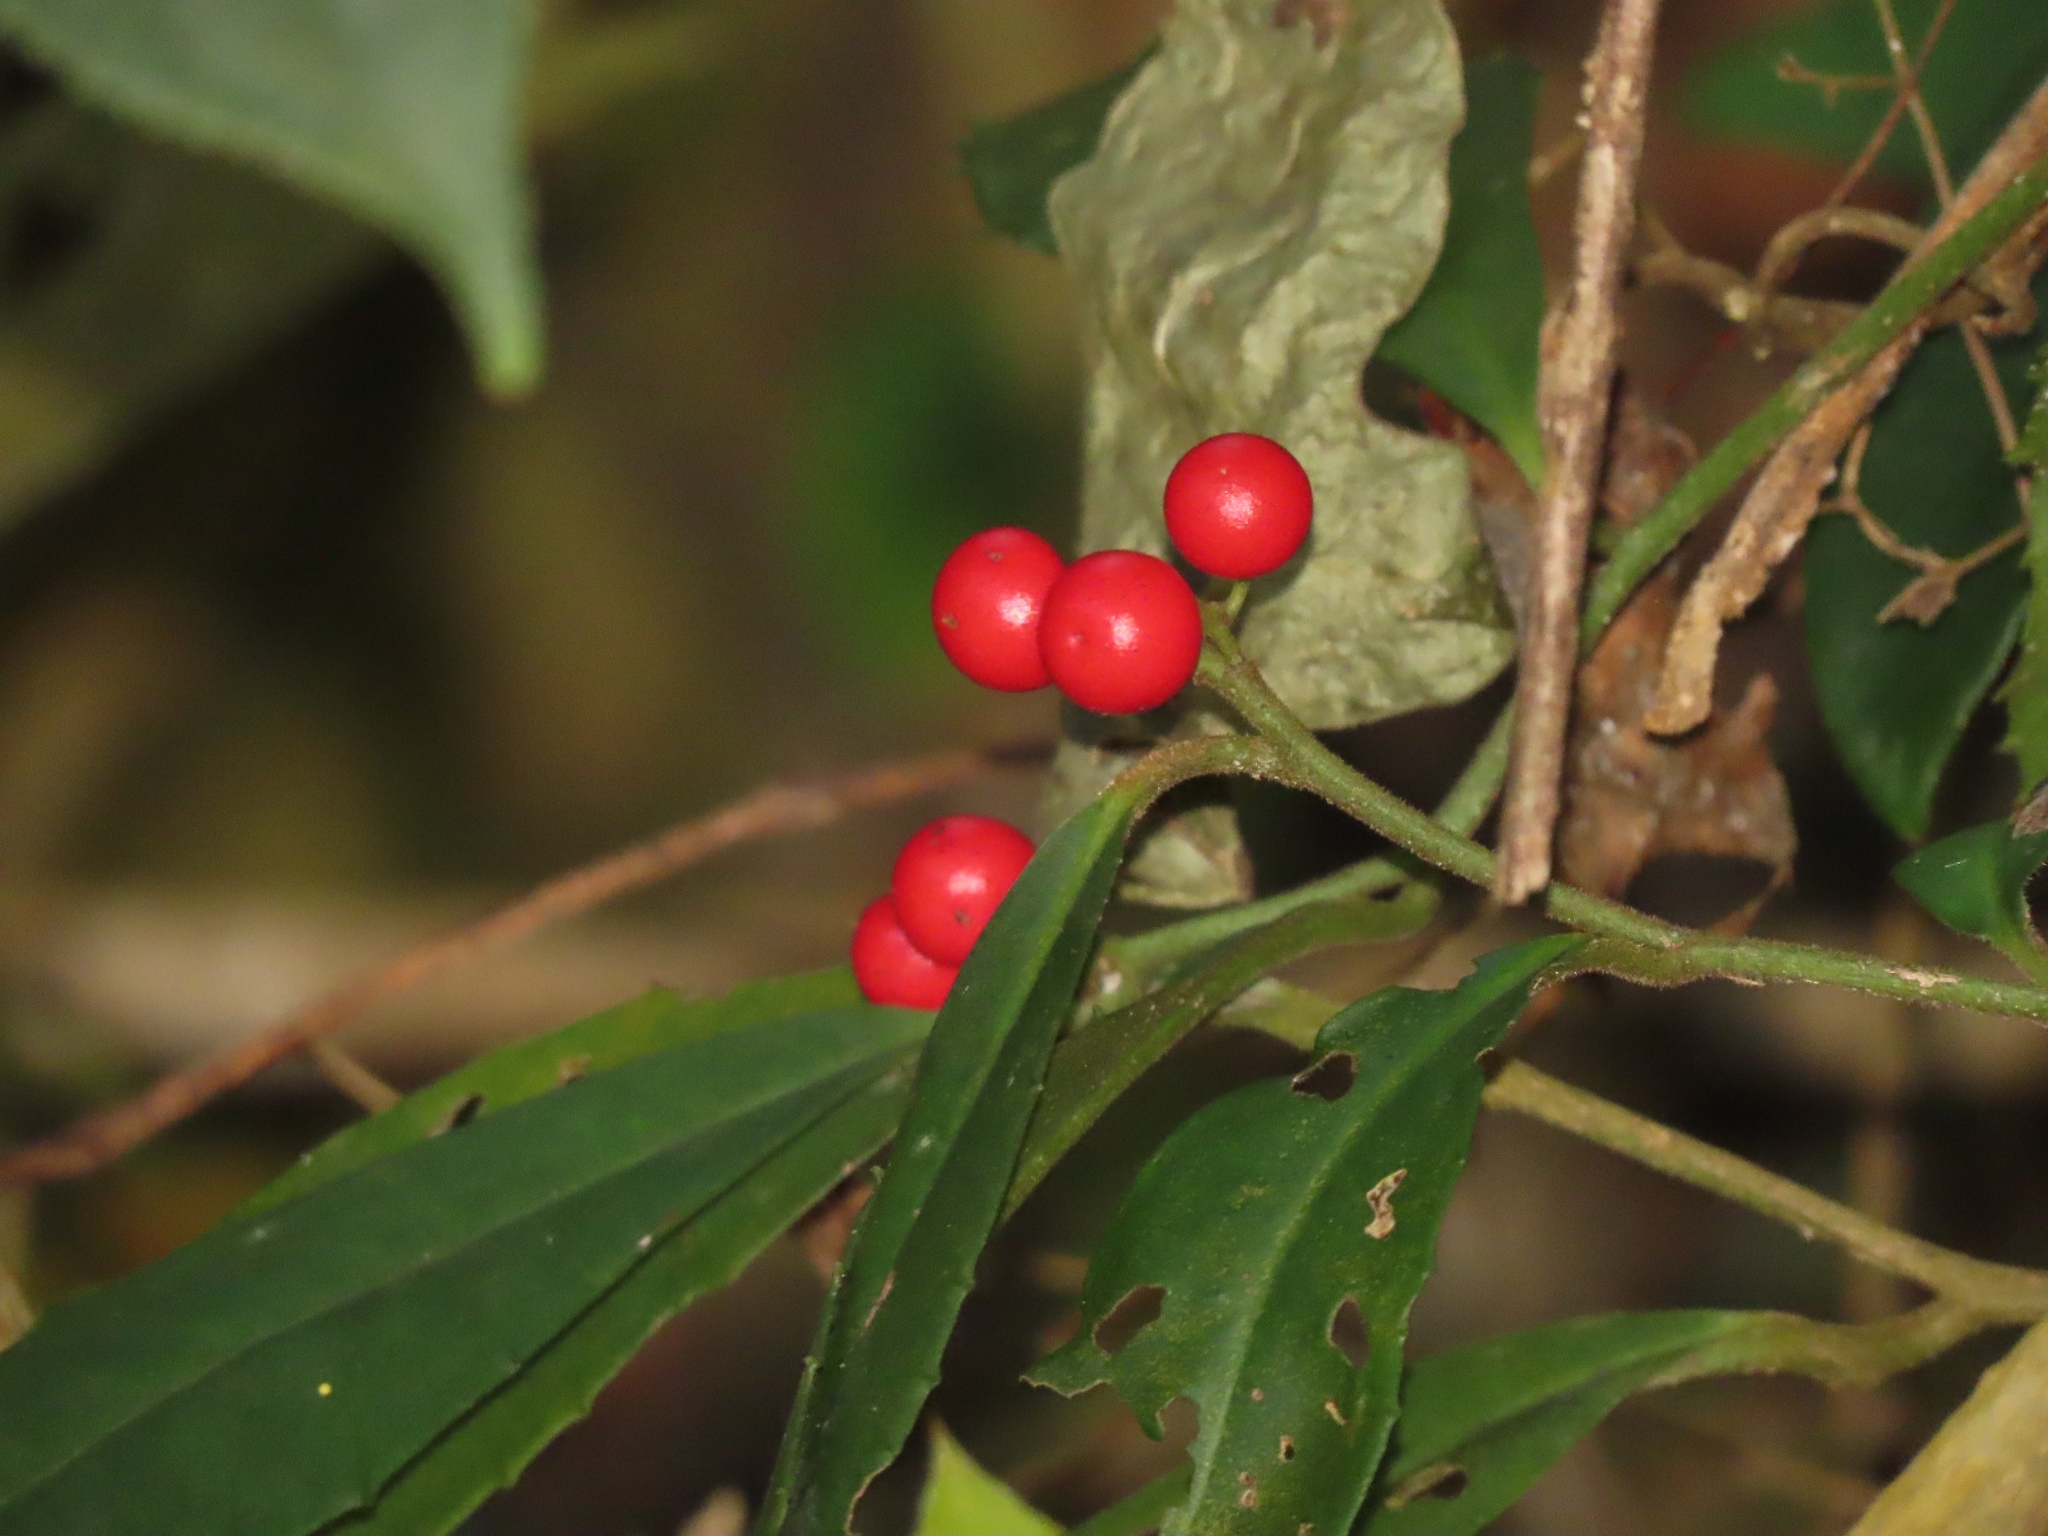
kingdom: Plantae
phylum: Tracheophyta
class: Magnoliopsida
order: Ericales
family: Primulaceae
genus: Ardisia
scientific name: Ardisia cornudentata
